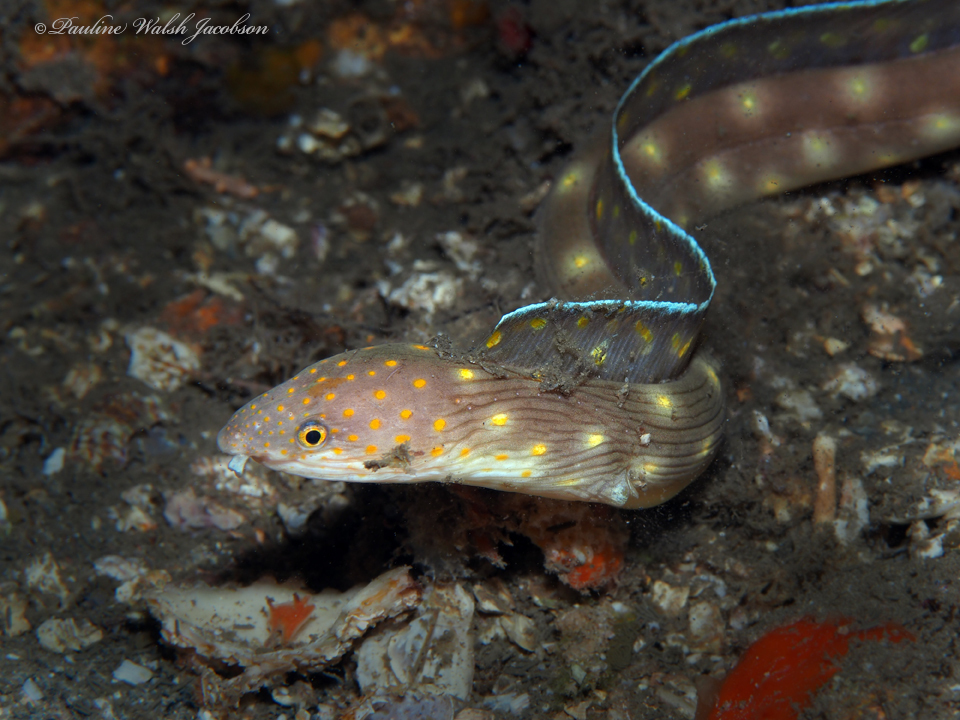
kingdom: Animalia
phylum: Chordata
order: Anguilliformes
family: Ophichthidae
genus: Myrichthys
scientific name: Myrichthys breviceps
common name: Sharptail eel
